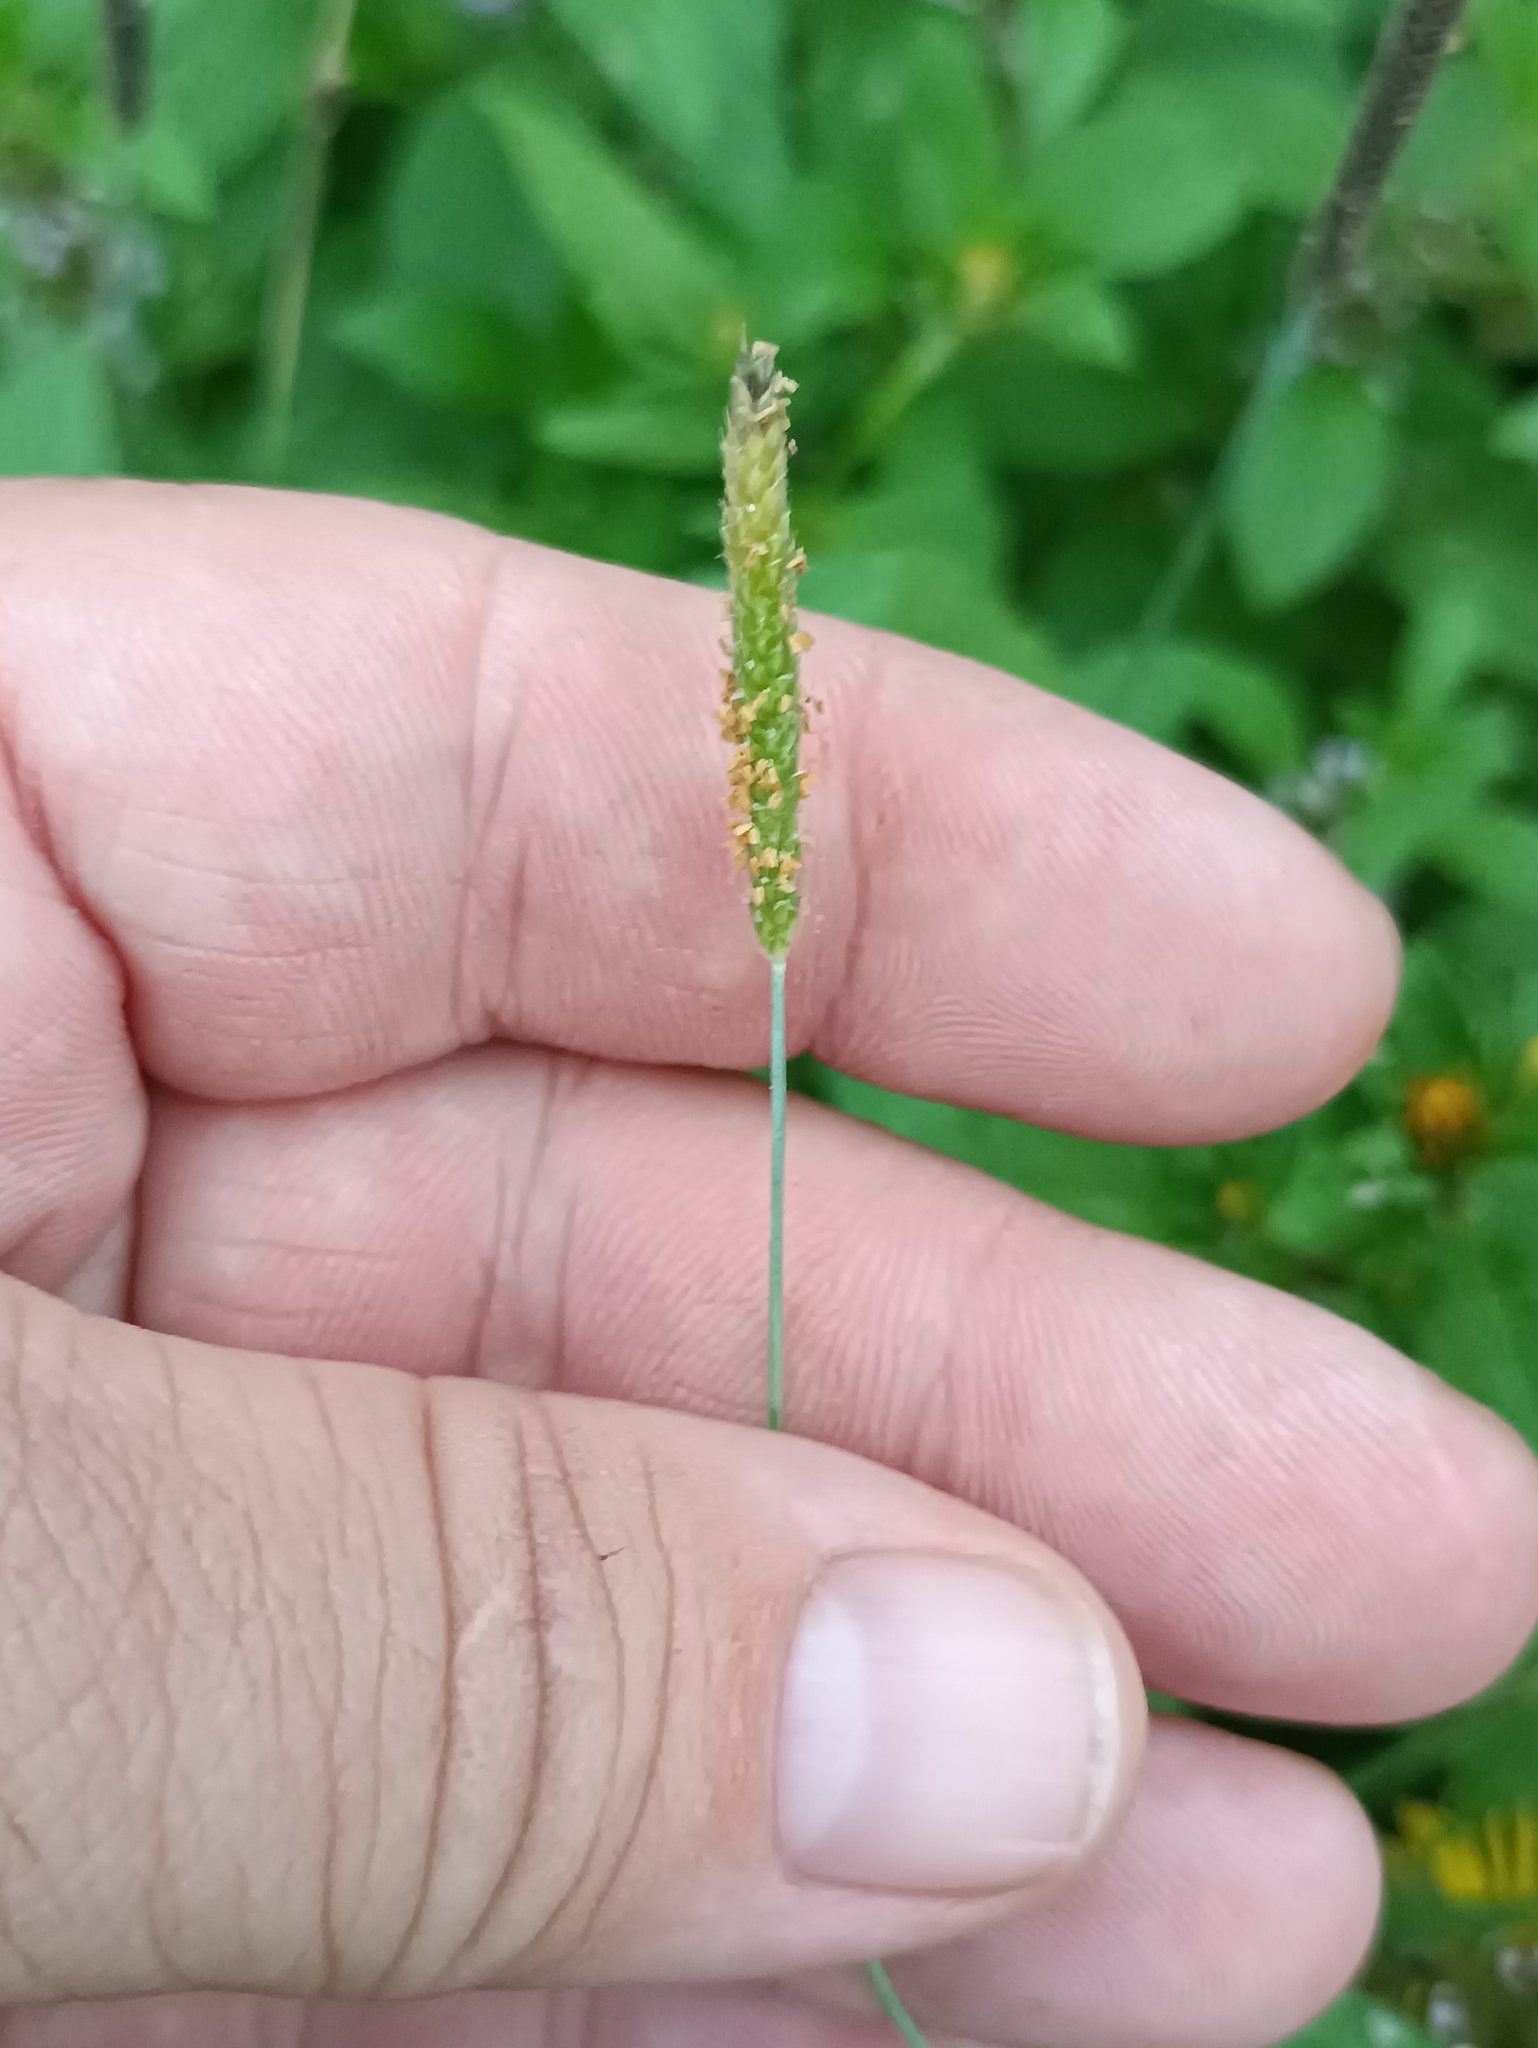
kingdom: Plantae
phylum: Tracheophyta
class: Liliopsida
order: Poales
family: Poaceae
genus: Alopecurus
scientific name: Alopecurus aequalis
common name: Orange foxtail
